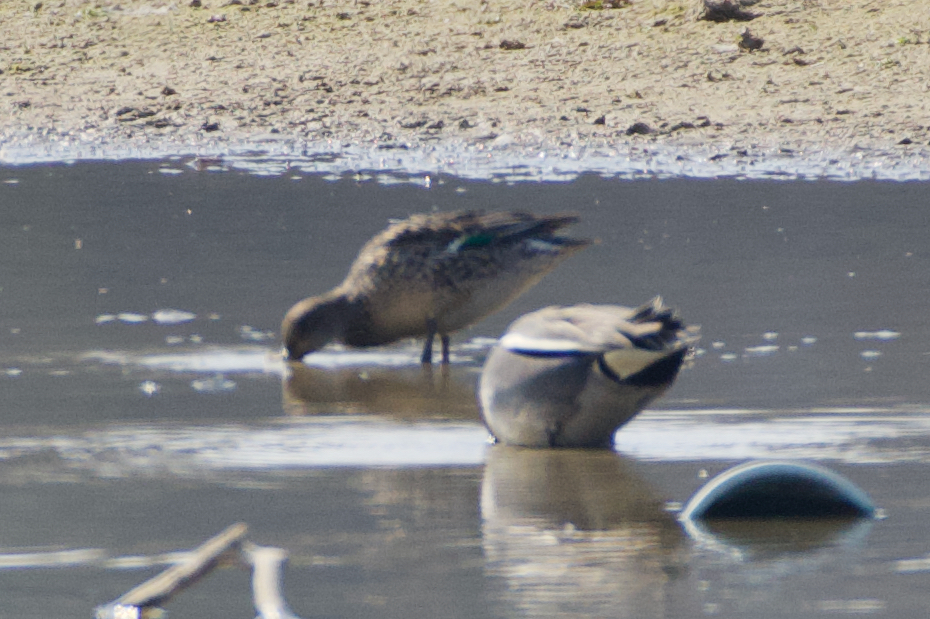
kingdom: Animalia
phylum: Chordata
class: Aves
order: Anseriformes
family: Anatidae
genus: Anas
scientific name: Anas crecca
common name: Eurasian teal
